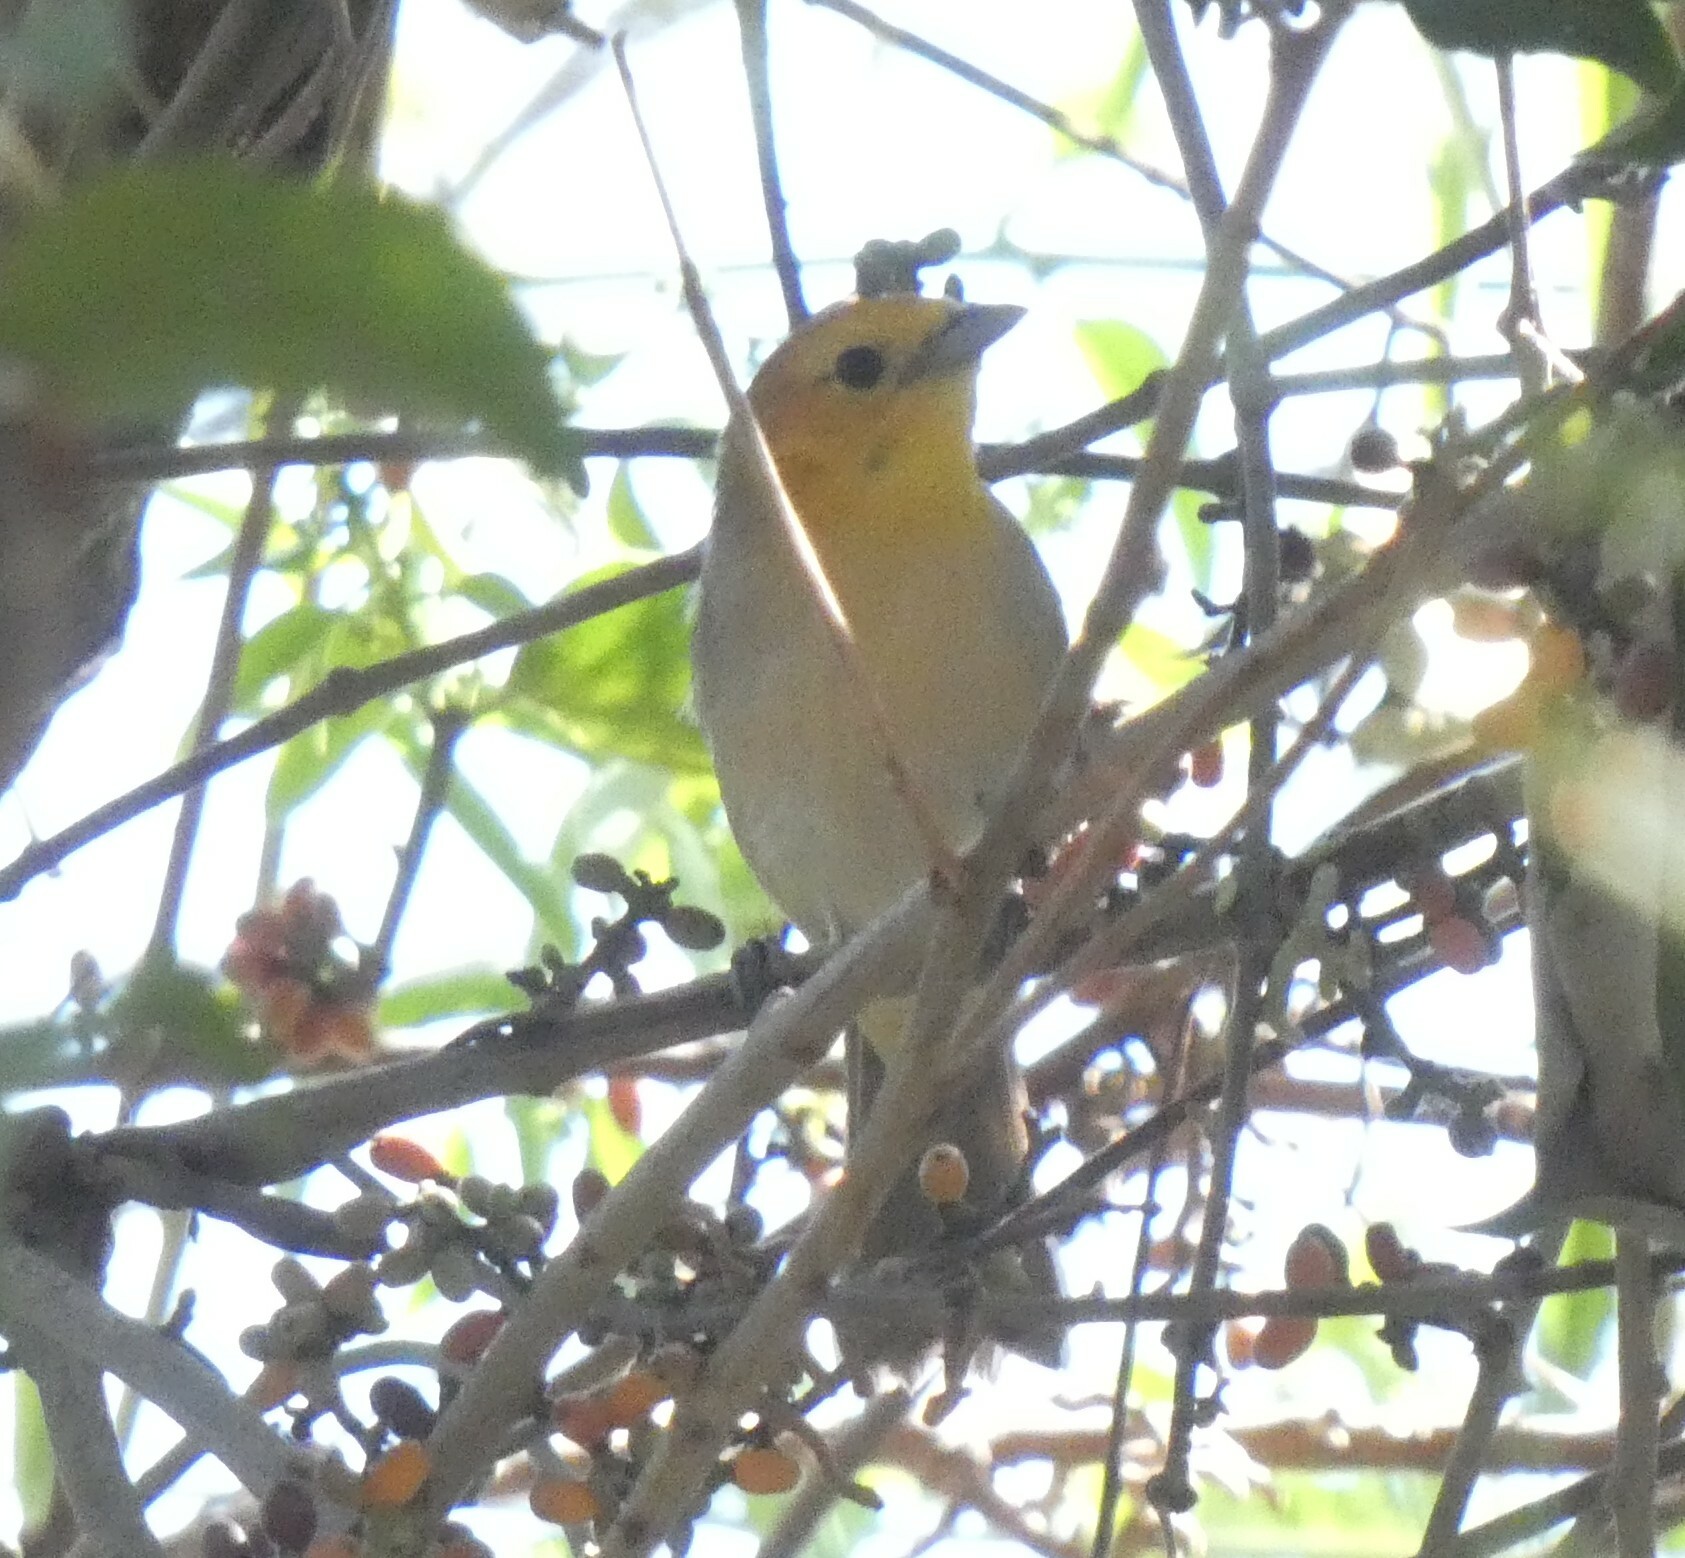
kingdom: Animalia
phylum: Chordata
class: Aves
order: Passeriformes
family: Thraupidae
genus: Thlypopsis
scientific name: Thlypopsis sordida
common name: Orange-headed tanager
